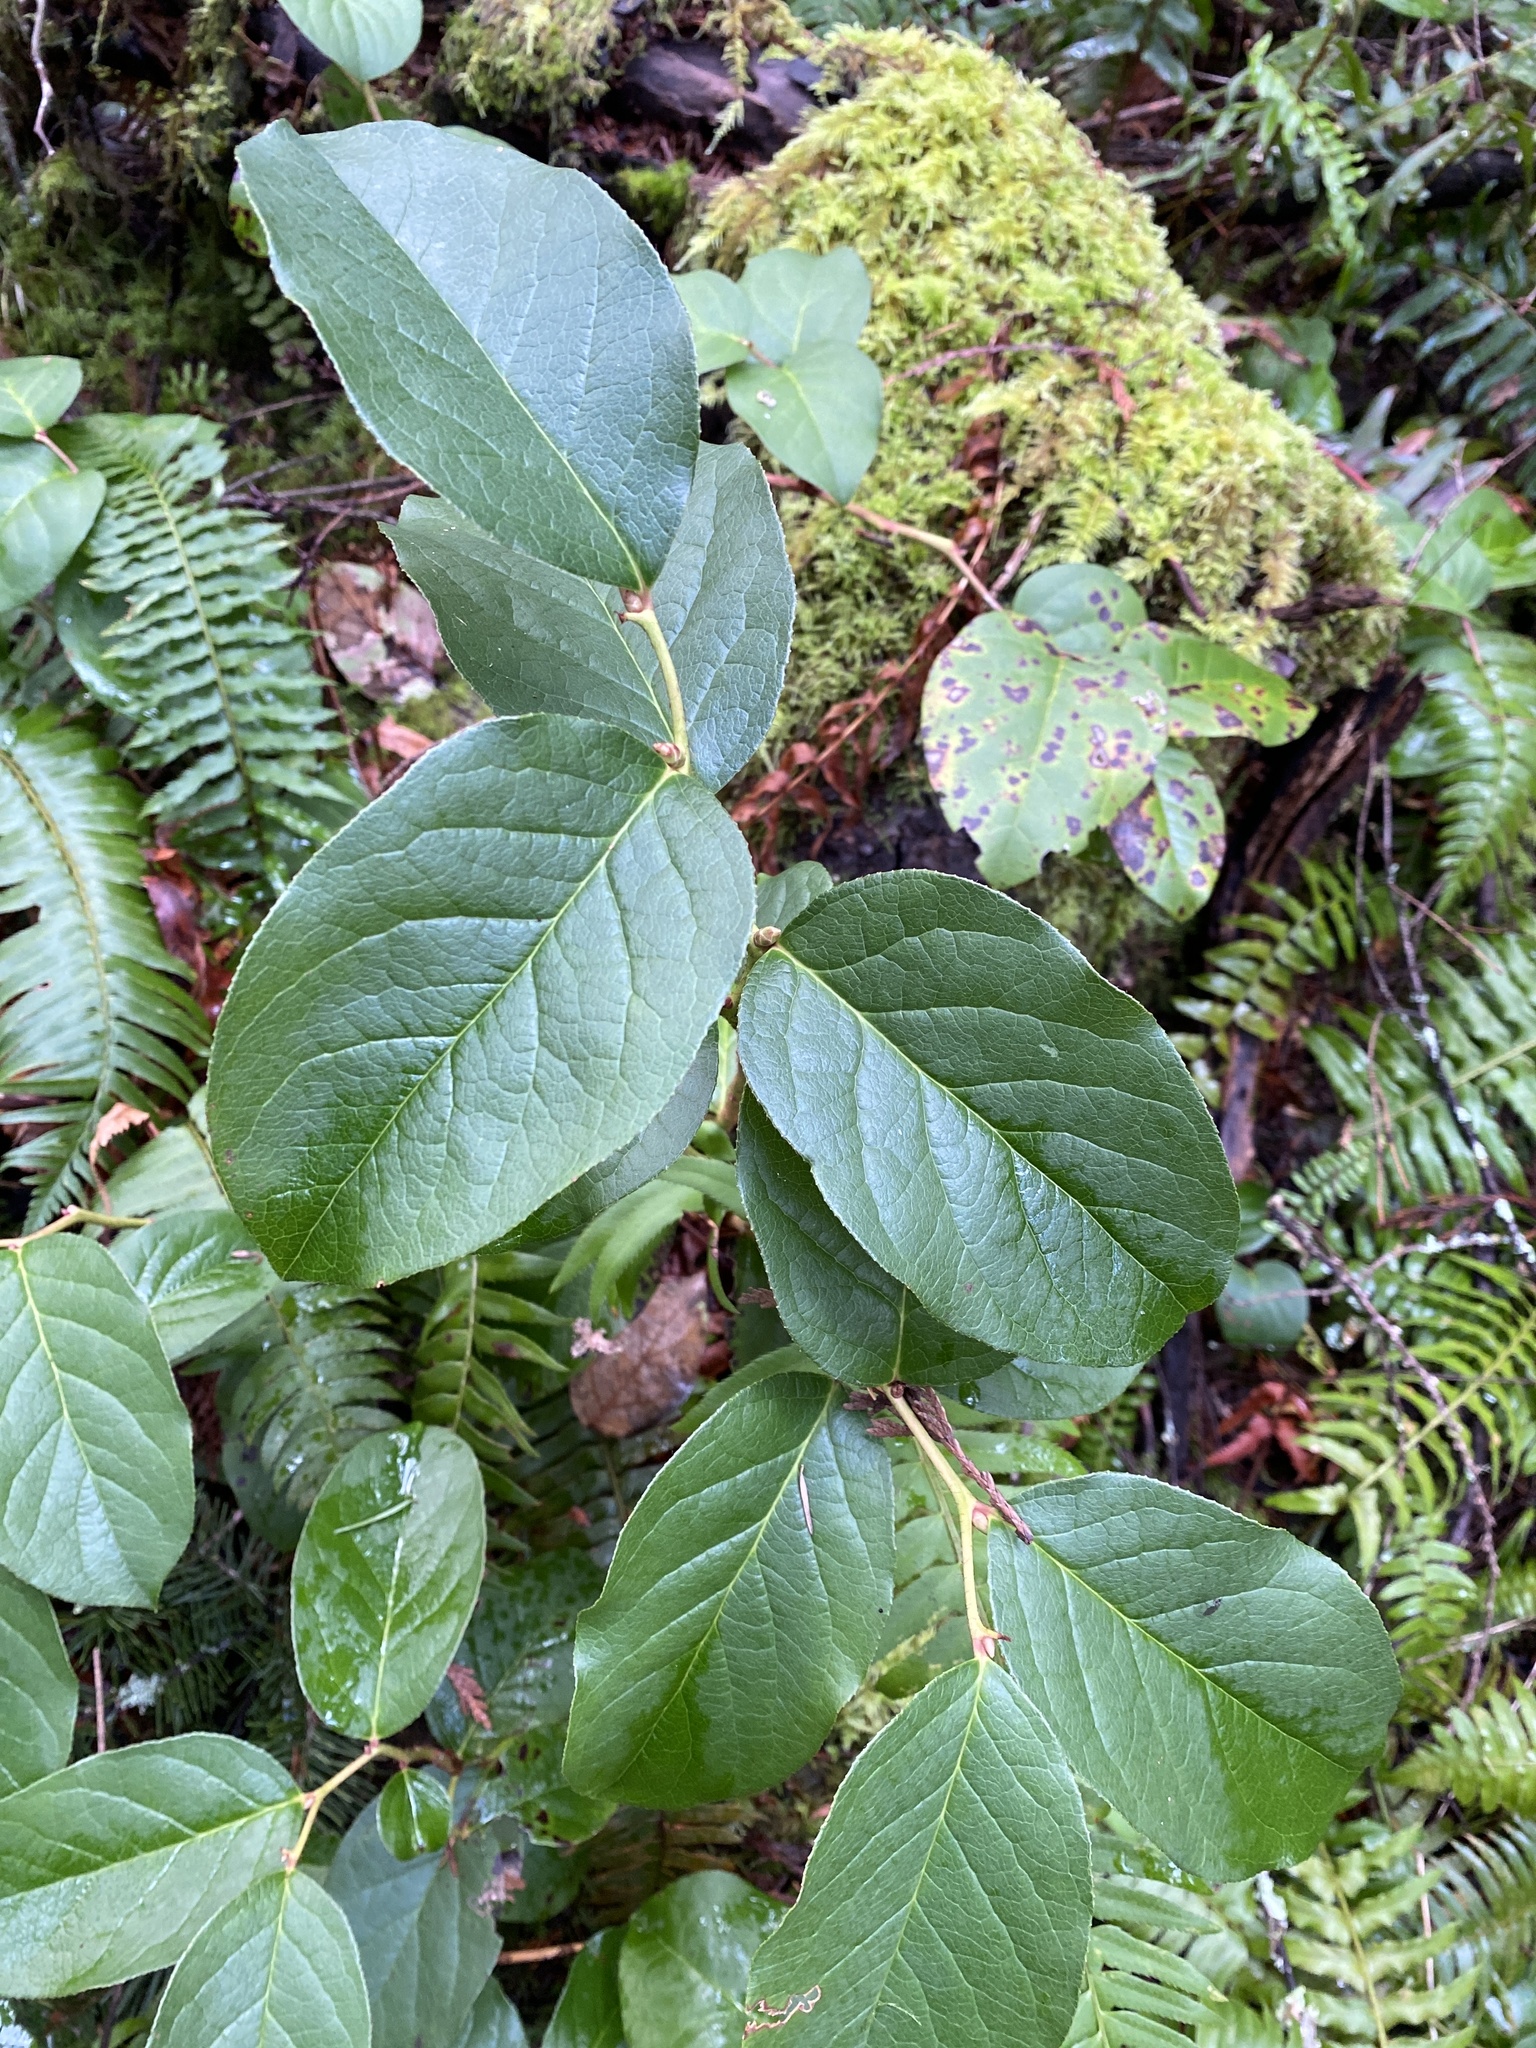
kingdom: Plantae
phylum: Tracheophyta
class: Magnoliopsida
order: Ericales
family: Ericaceae
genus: Gaultheria
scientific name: Gaultheria shallon
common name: Shallon
